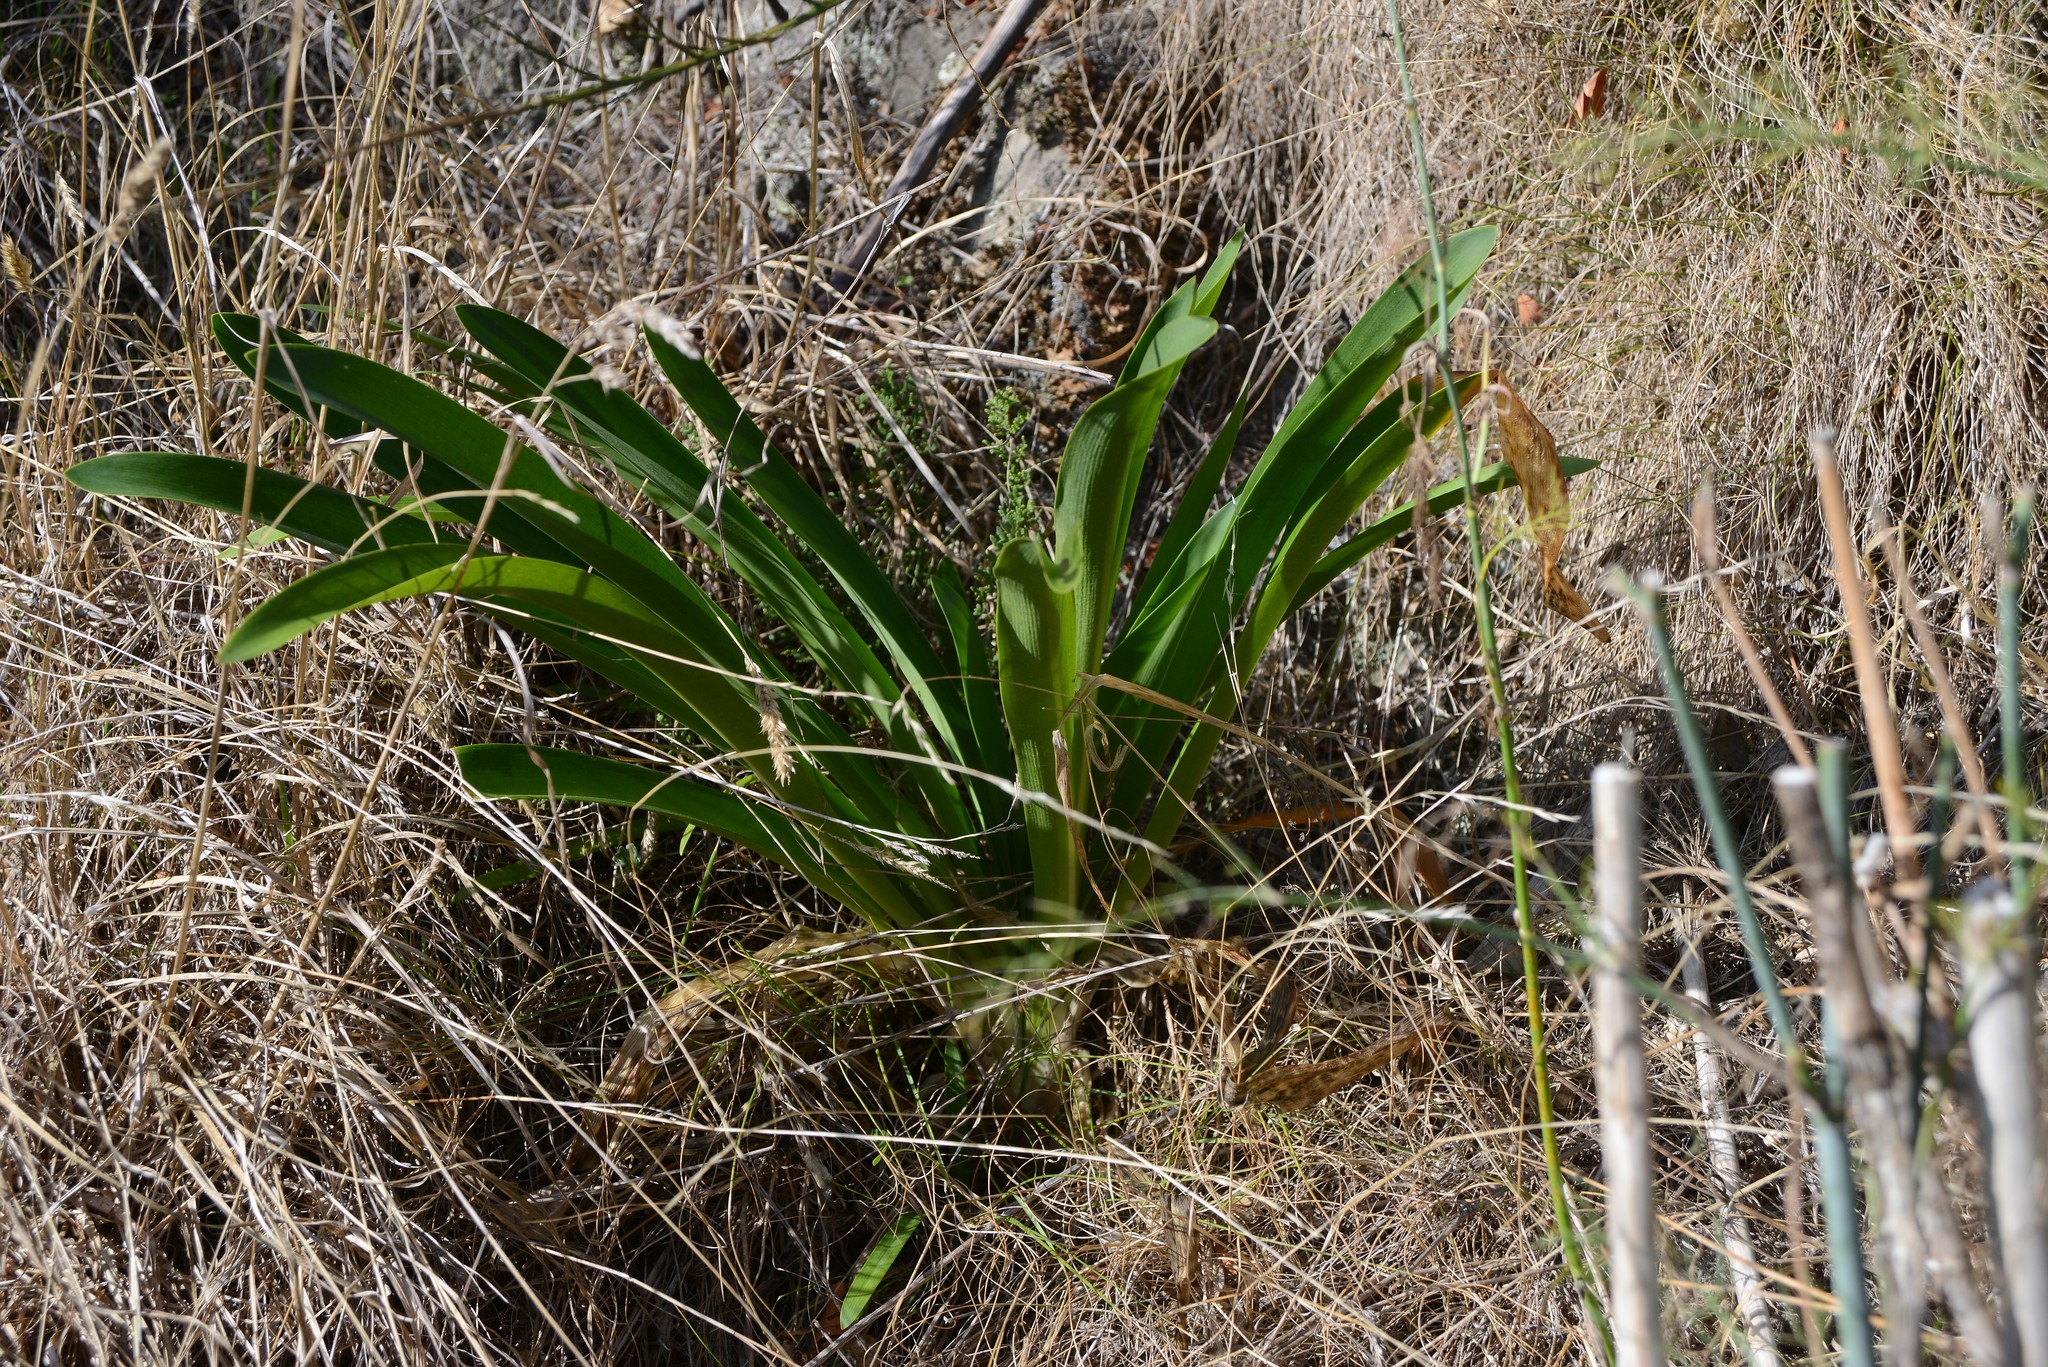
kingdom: Plantae
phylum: Tracheophyta
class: Liliopsida
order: Asparagales
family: Amaryllidaceae
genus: Agapanthus
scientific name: Agapanthus praecox
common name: African-lily
